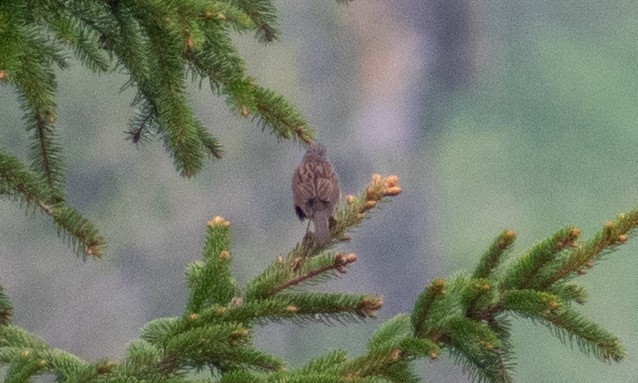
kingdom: Animalia
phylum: Chordata
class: Aves
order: Passeriformes
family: Prunellidae
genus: Prunella
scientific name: Prunella modularis
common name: Dunnock
